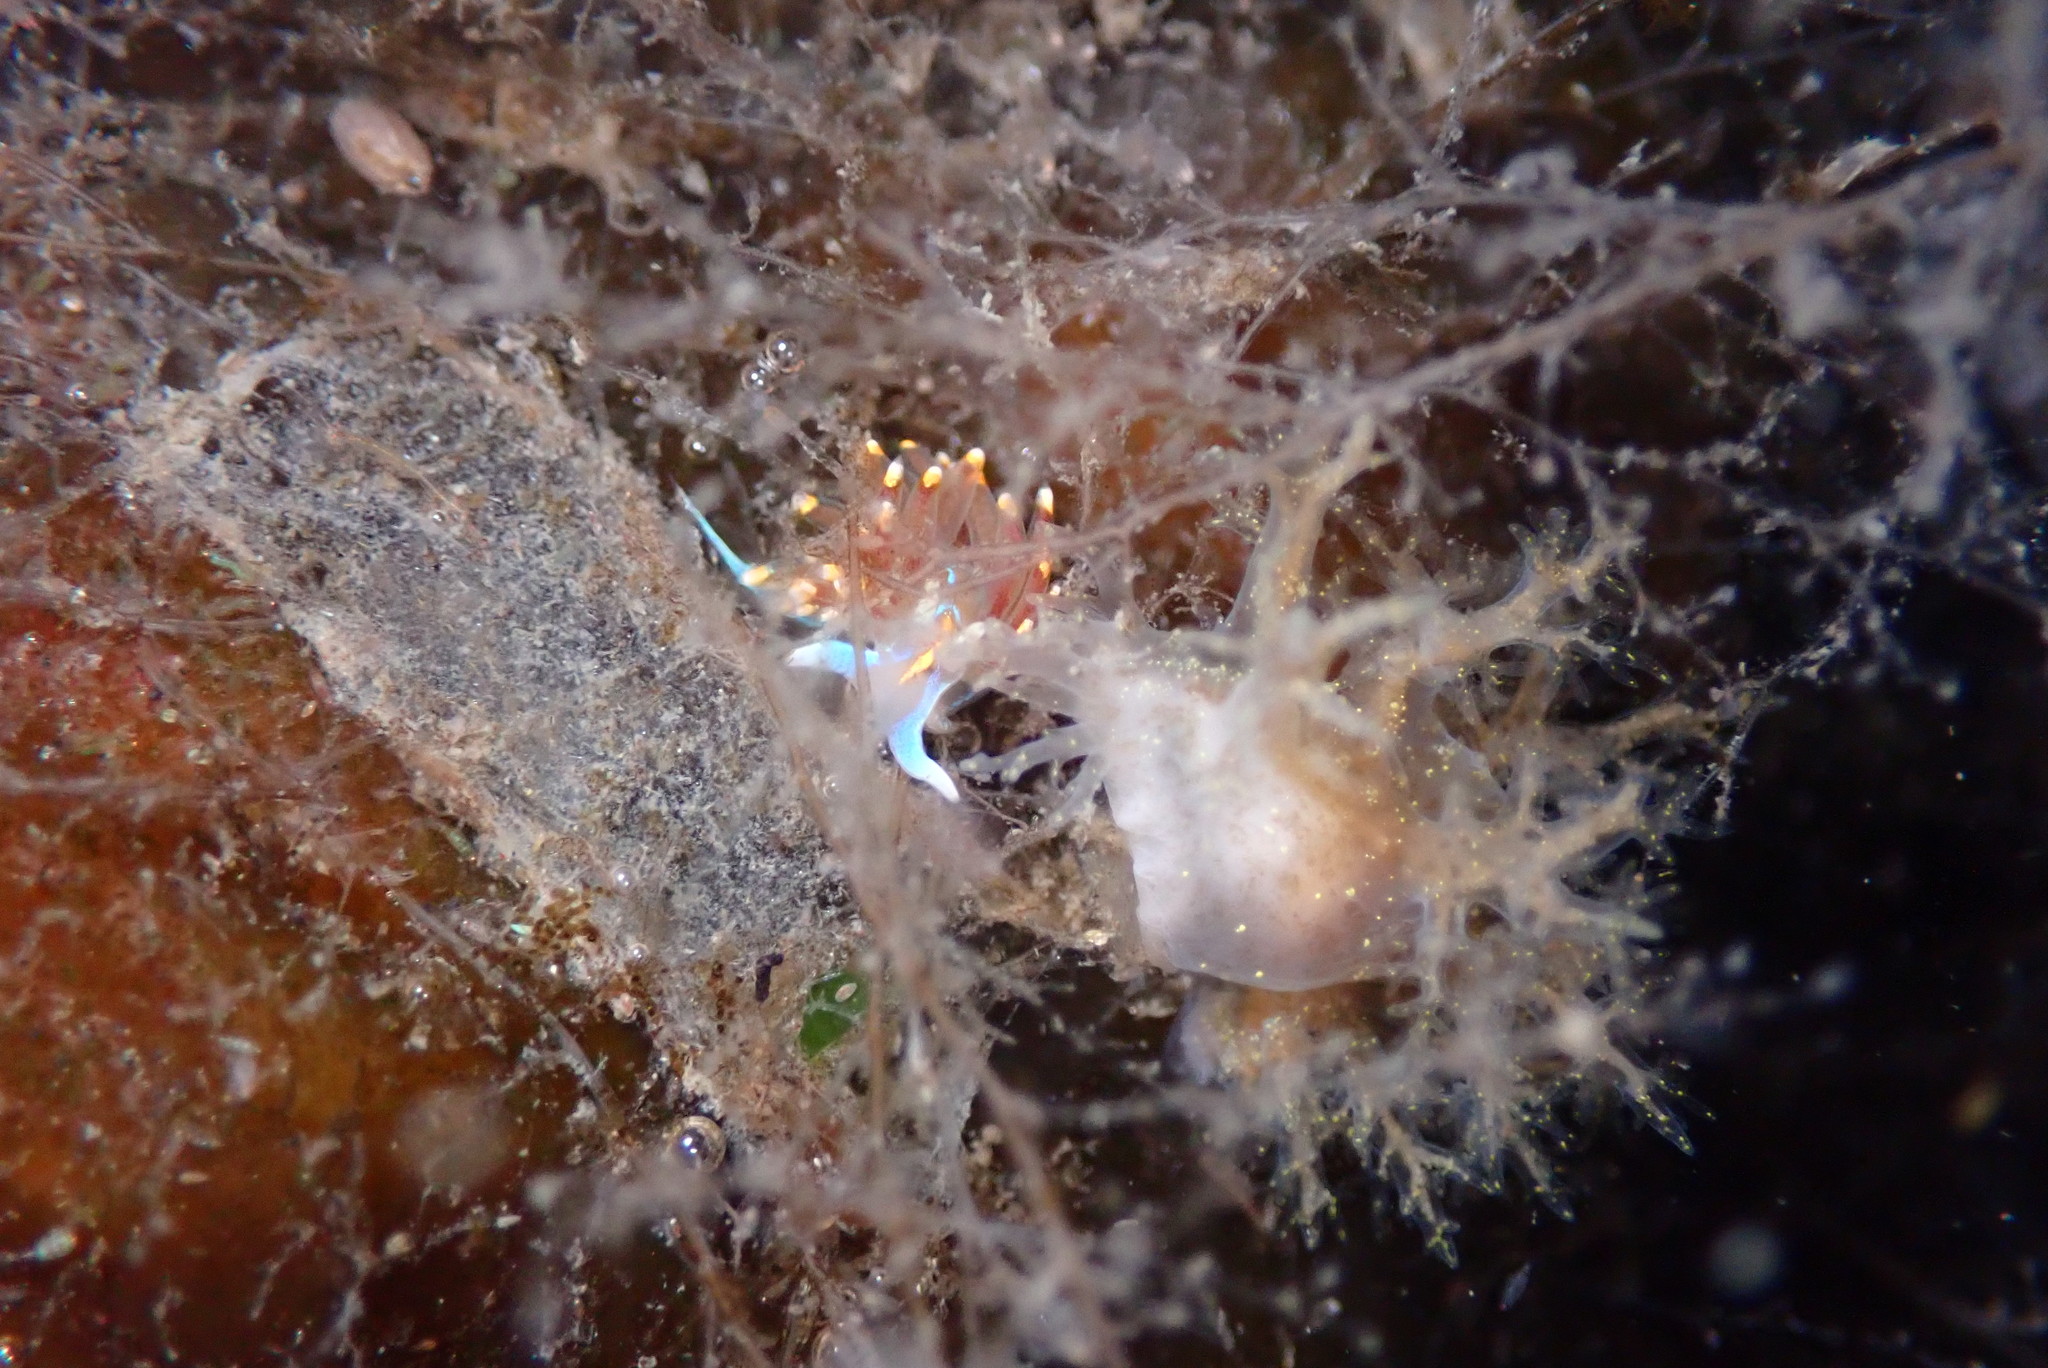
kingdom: Animalia
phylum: Mollusca
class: Gastropoda
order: Nudibranchia
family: Dendronotidae
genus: Dendronotus
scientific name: Dendronotus venustus
